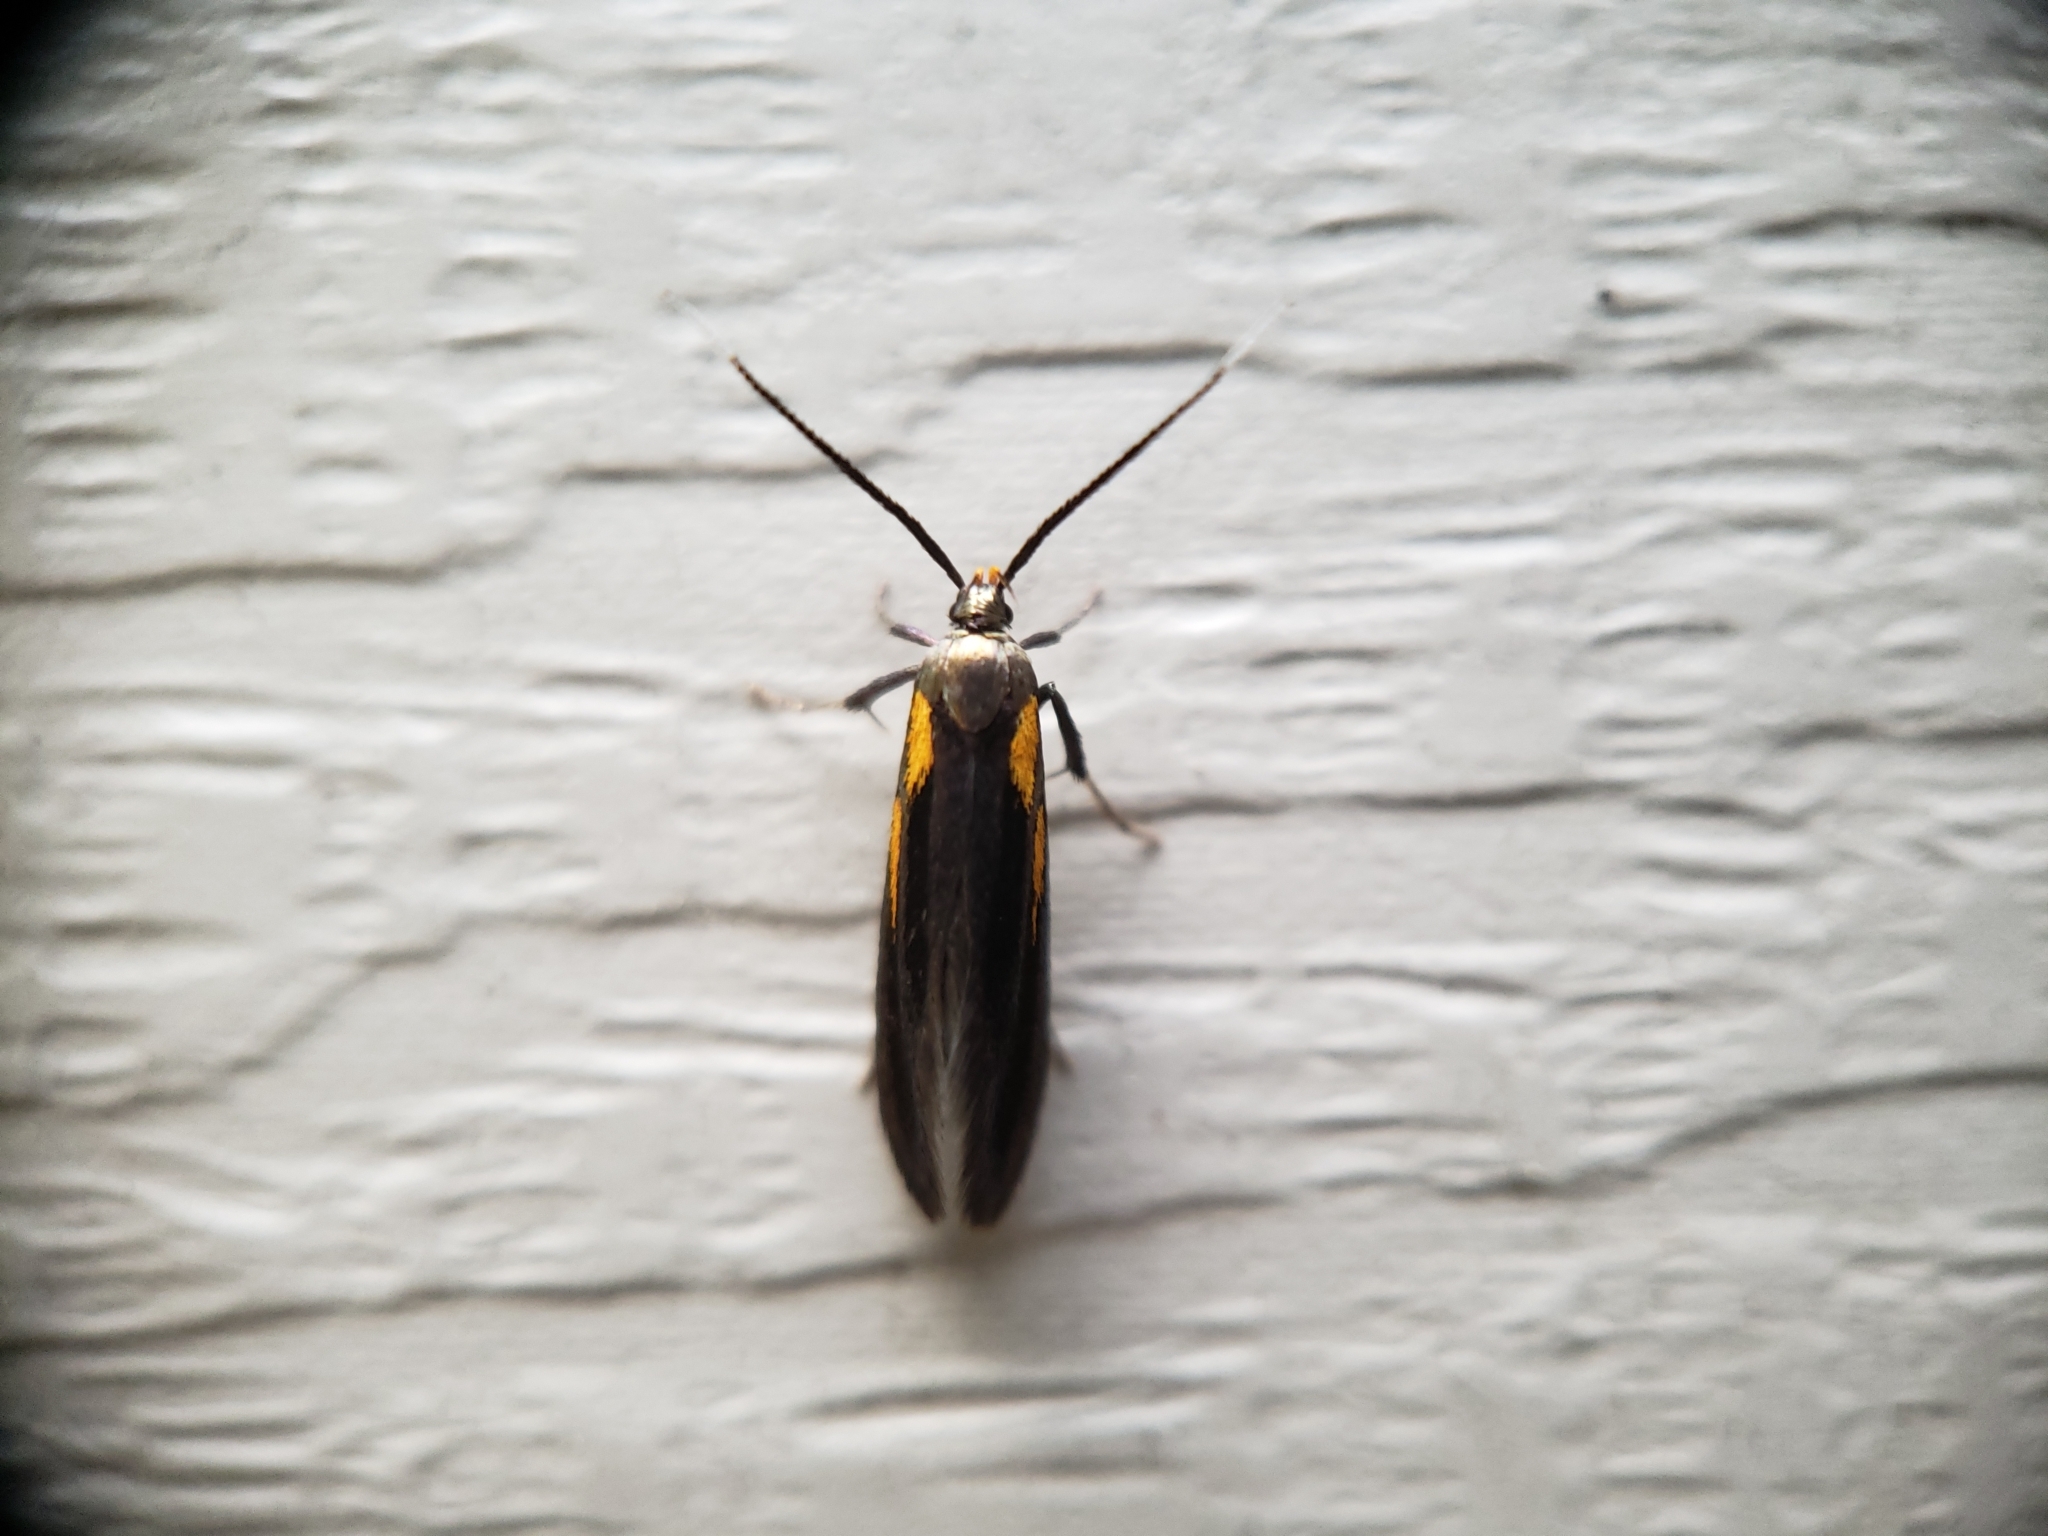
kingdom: Animalia
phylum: Arthropoda
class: Insecta
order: Lepidoptera
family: Oecophoridae
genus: Mathildana
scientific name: Mathildana newmanella
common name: Newman's mathildana moth
